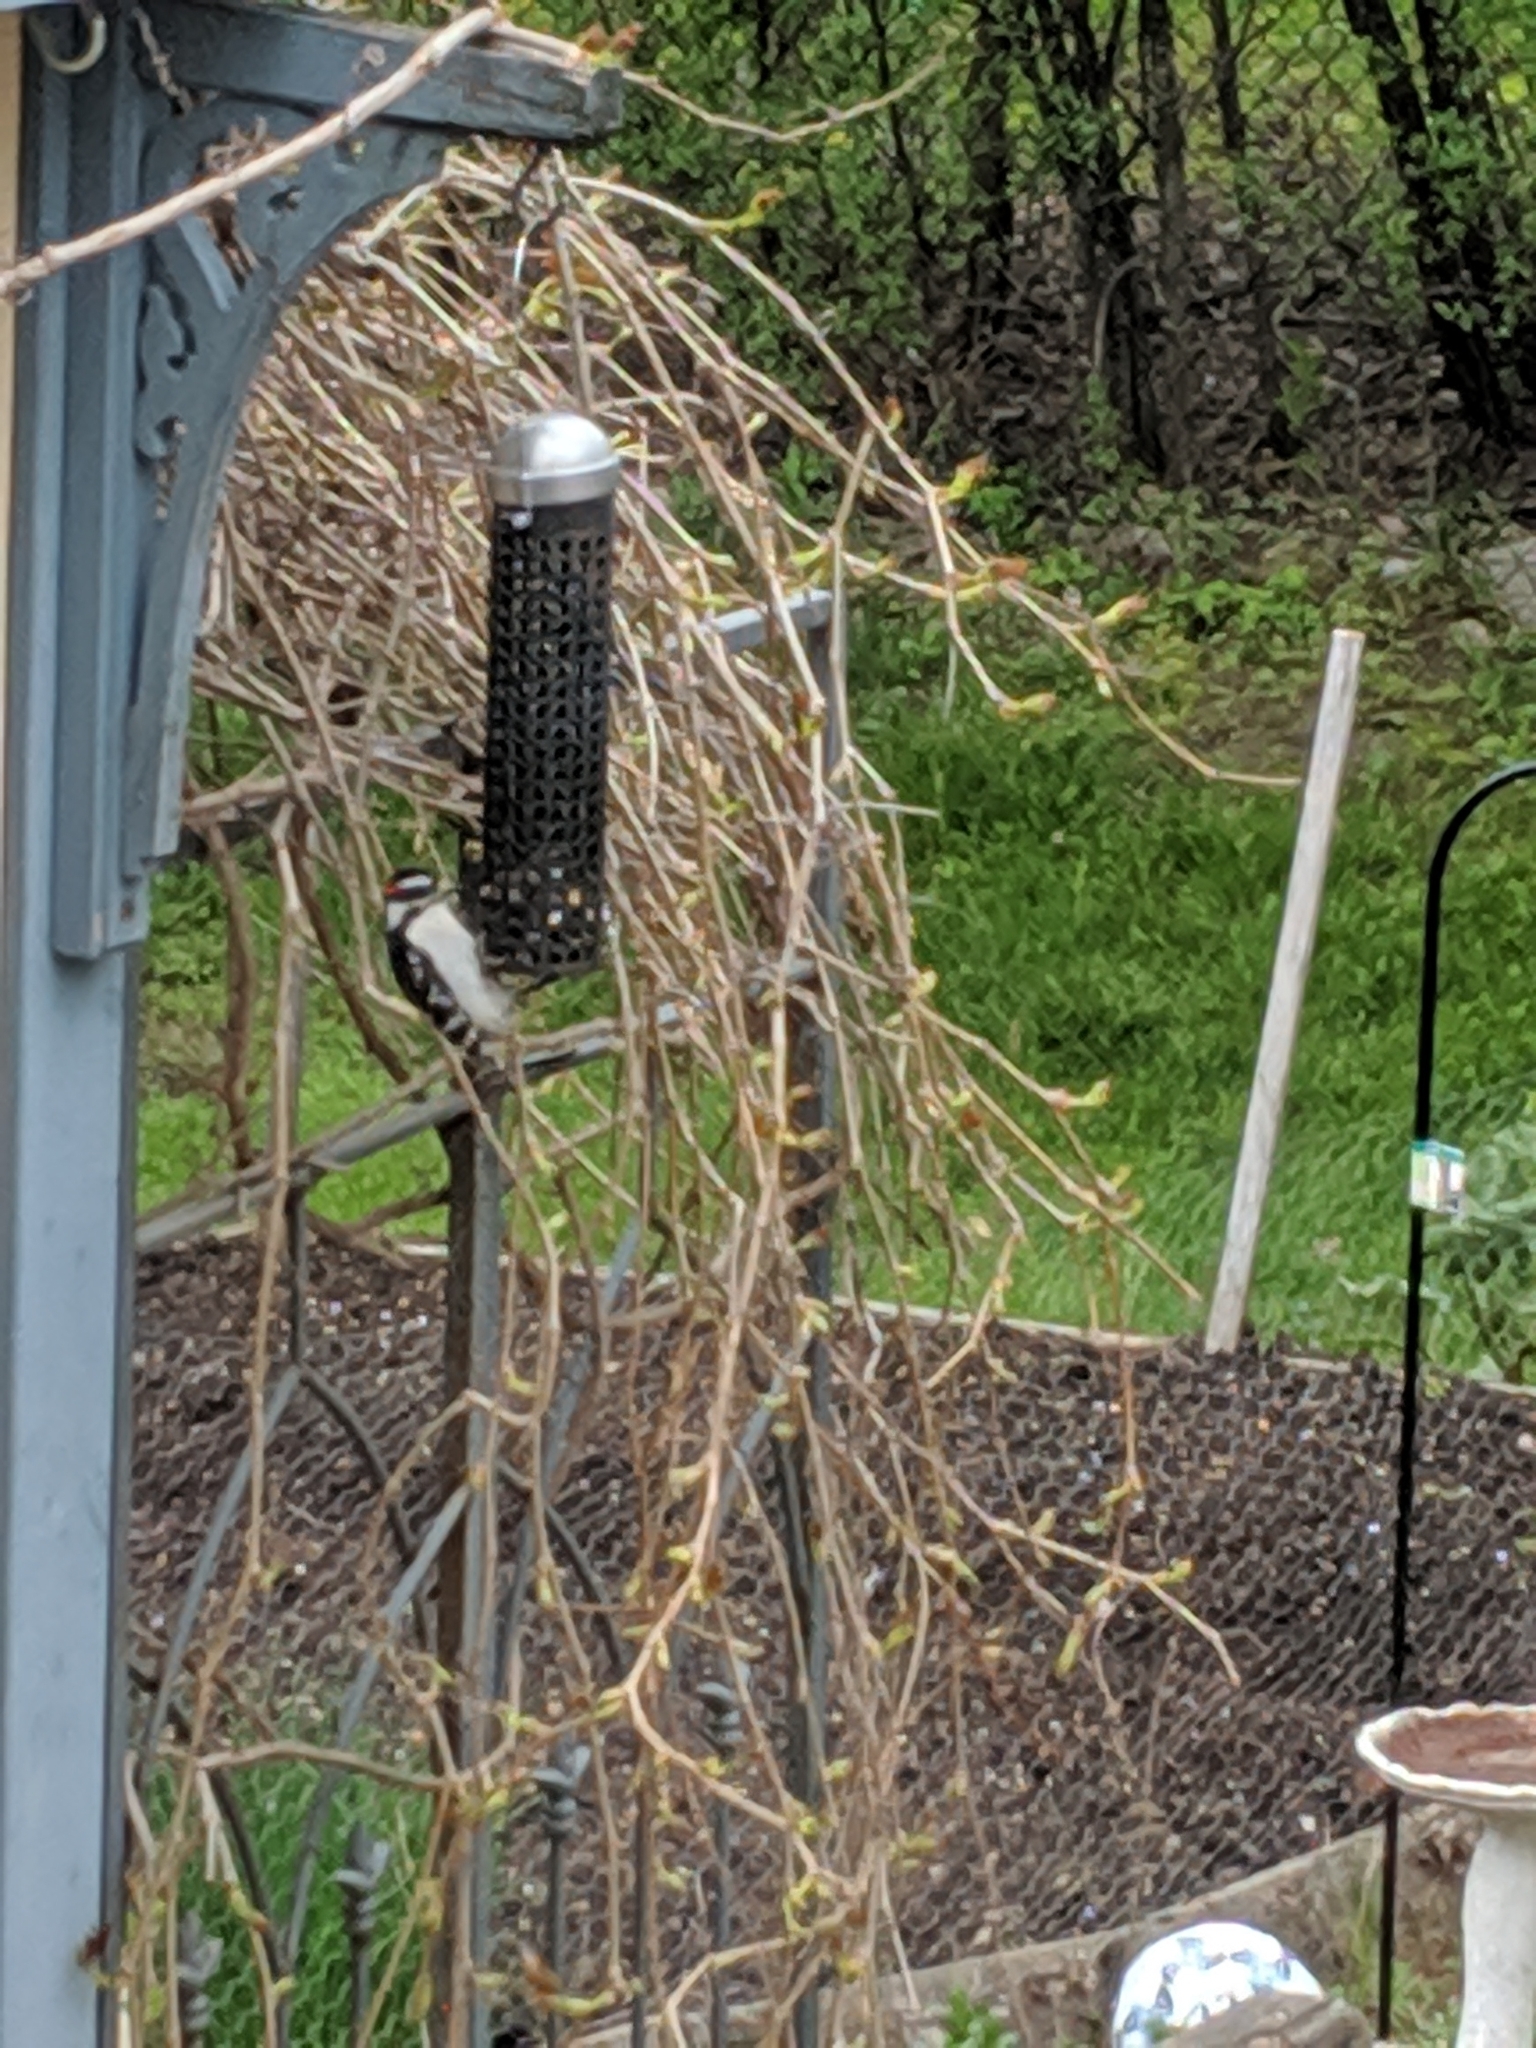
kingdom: Animalia
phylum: Chordata
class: Aves
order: Piciformes
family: Picidae
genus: Dryobates
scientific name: Dryobates pubescens
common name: Downy woodpecker
